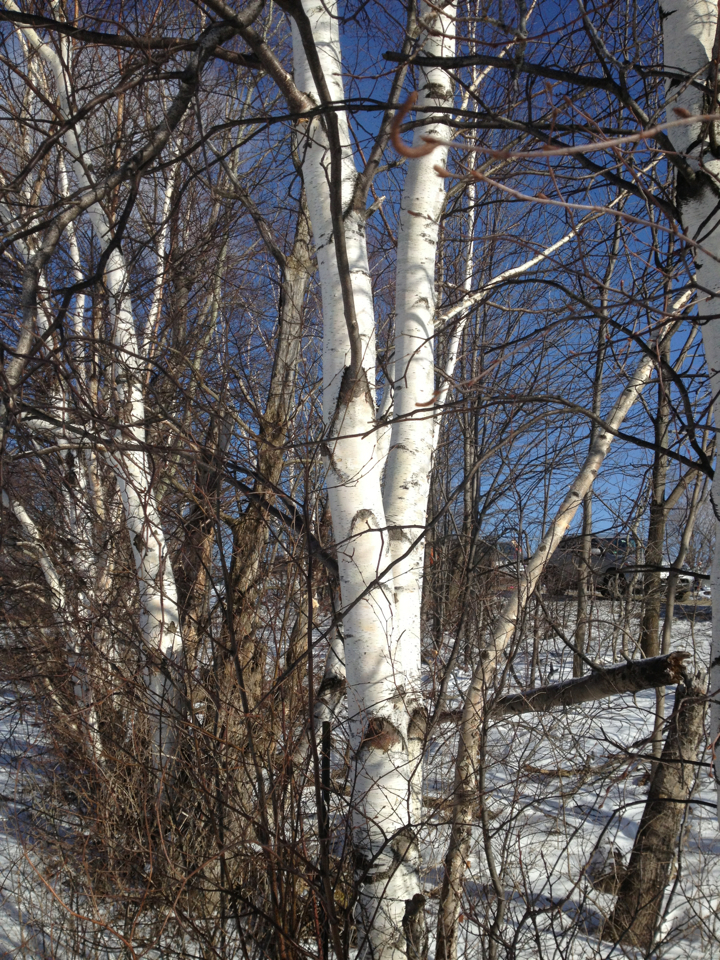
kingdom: Plantae
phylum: Tracheophyta
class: Magnoliopsida
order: Fagales
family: Betulaceae
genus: Betula
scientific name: Betula papyrifera
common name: Paper birch
